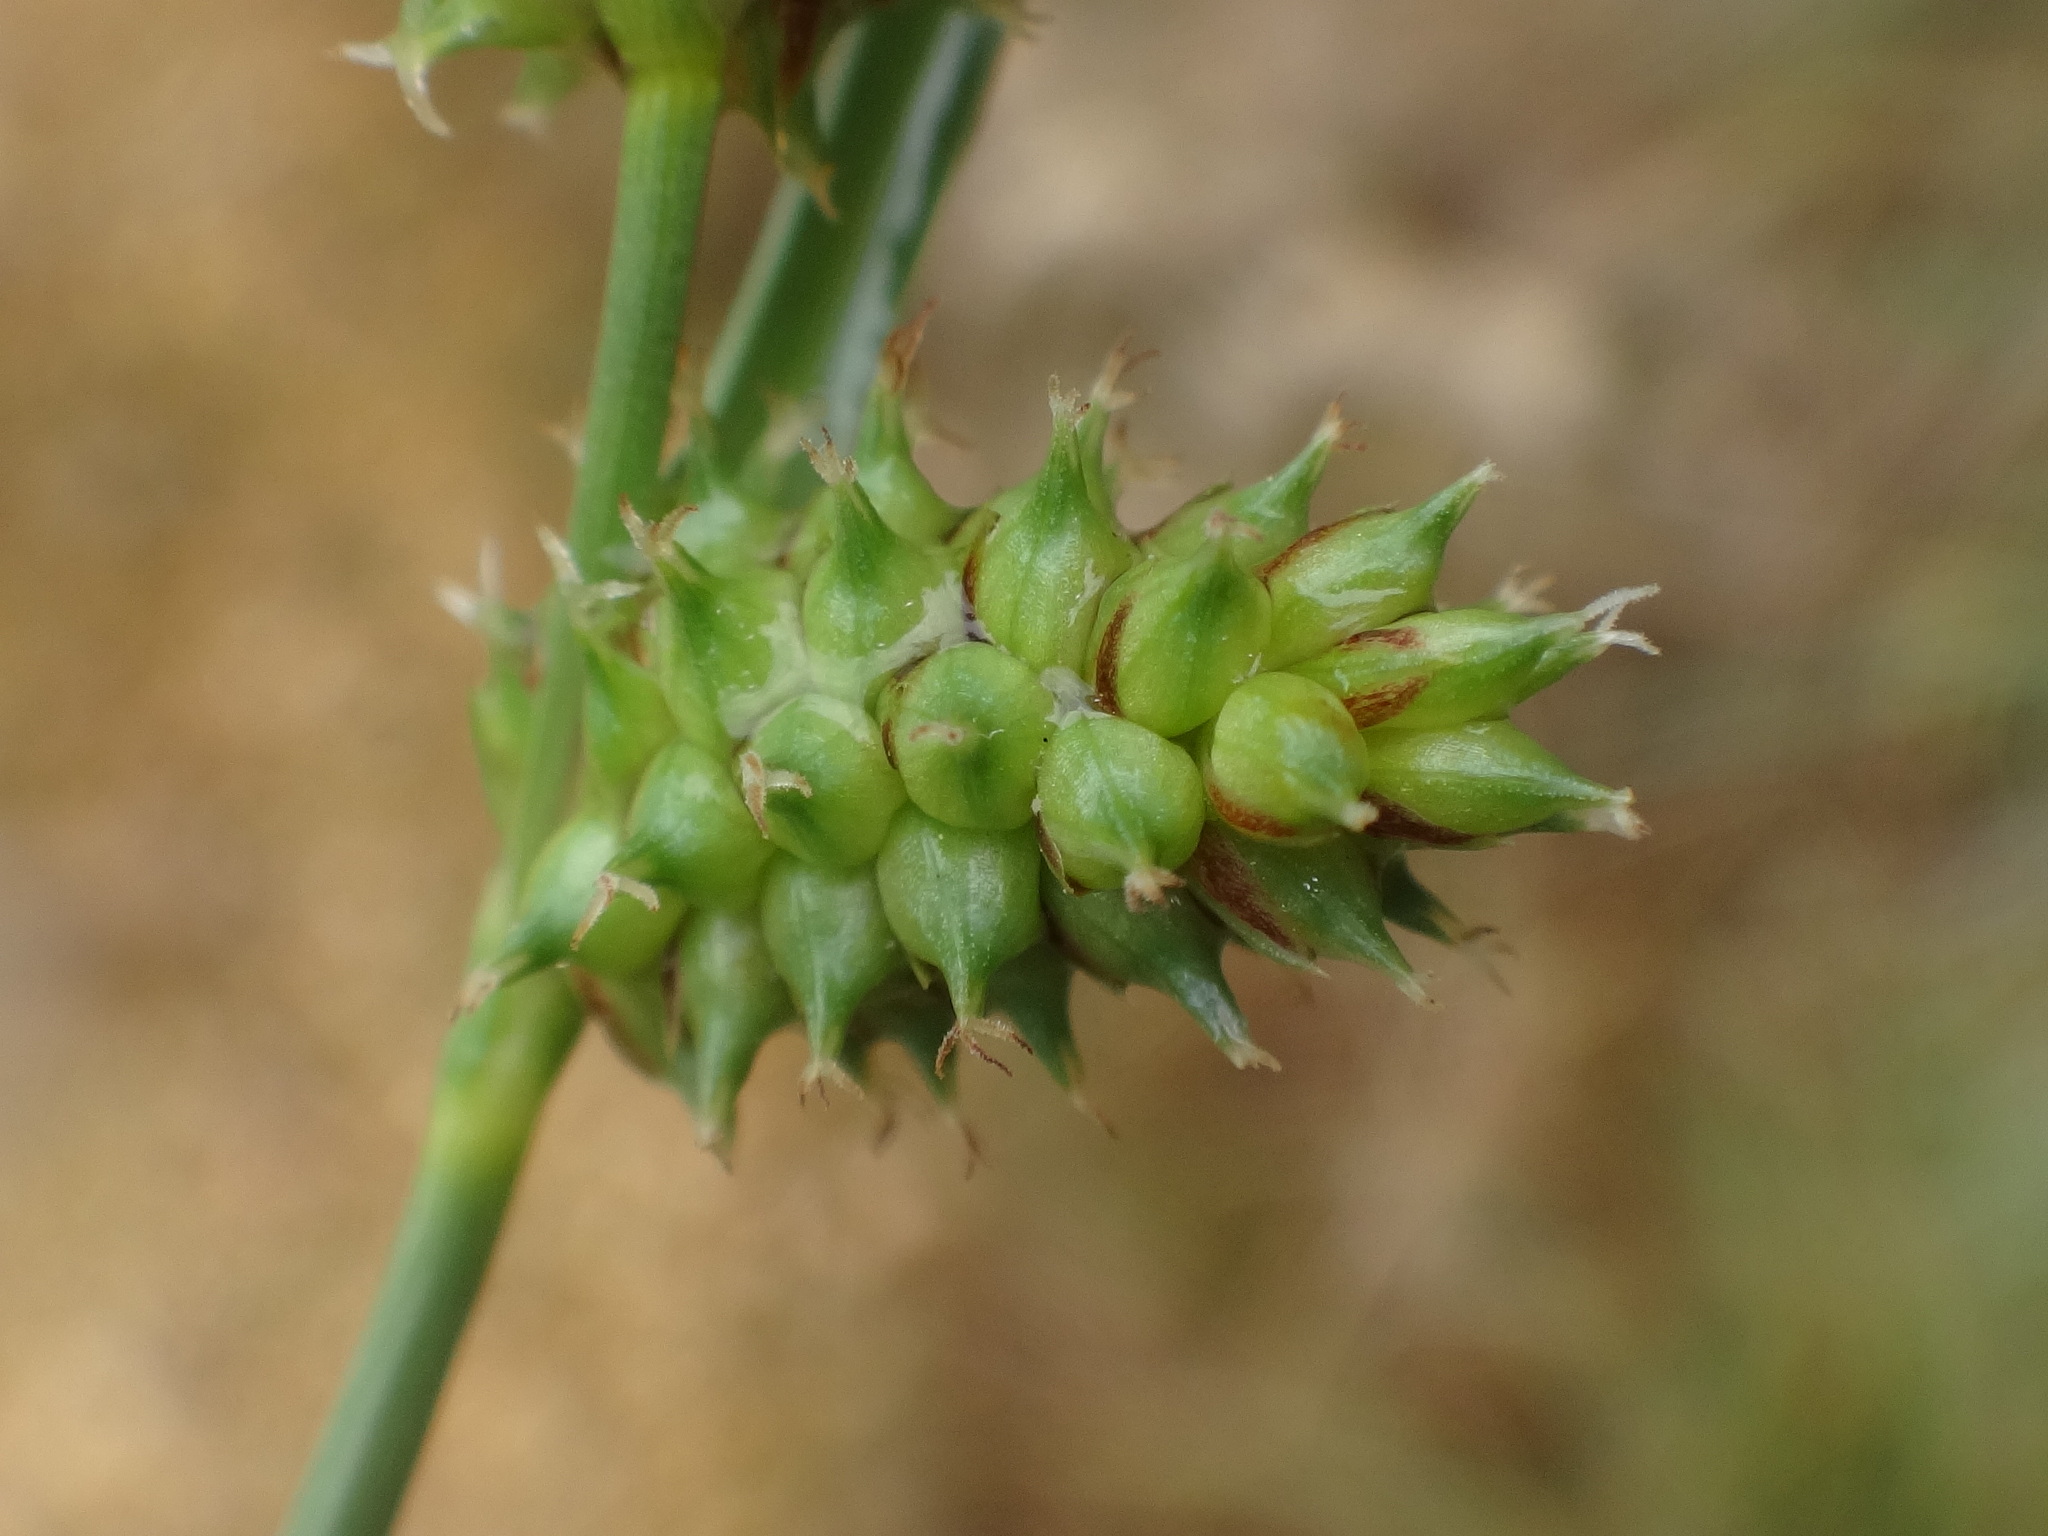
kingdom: Plantae
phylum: Tracheophyta
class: Liliopsida
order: Poales
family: Cyperaceae
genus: Carex
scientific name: Carex extensa
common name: Long-bracted sedge
